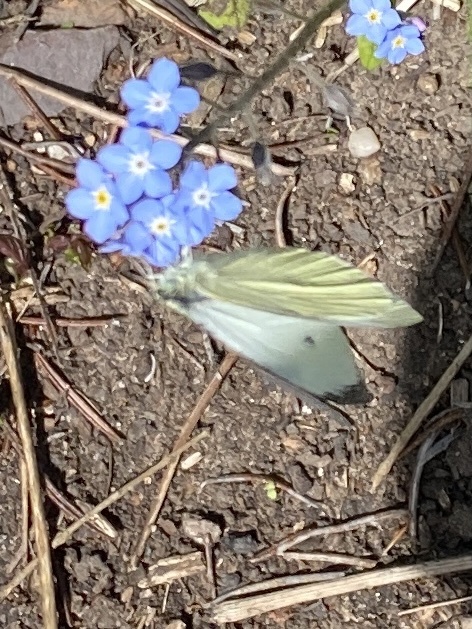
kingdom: Animalia
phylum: Arthropoda
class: Insecta
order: Lepidoptera
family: Pieridae
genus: Pieris
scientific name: Pieris rapae
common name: Small white
